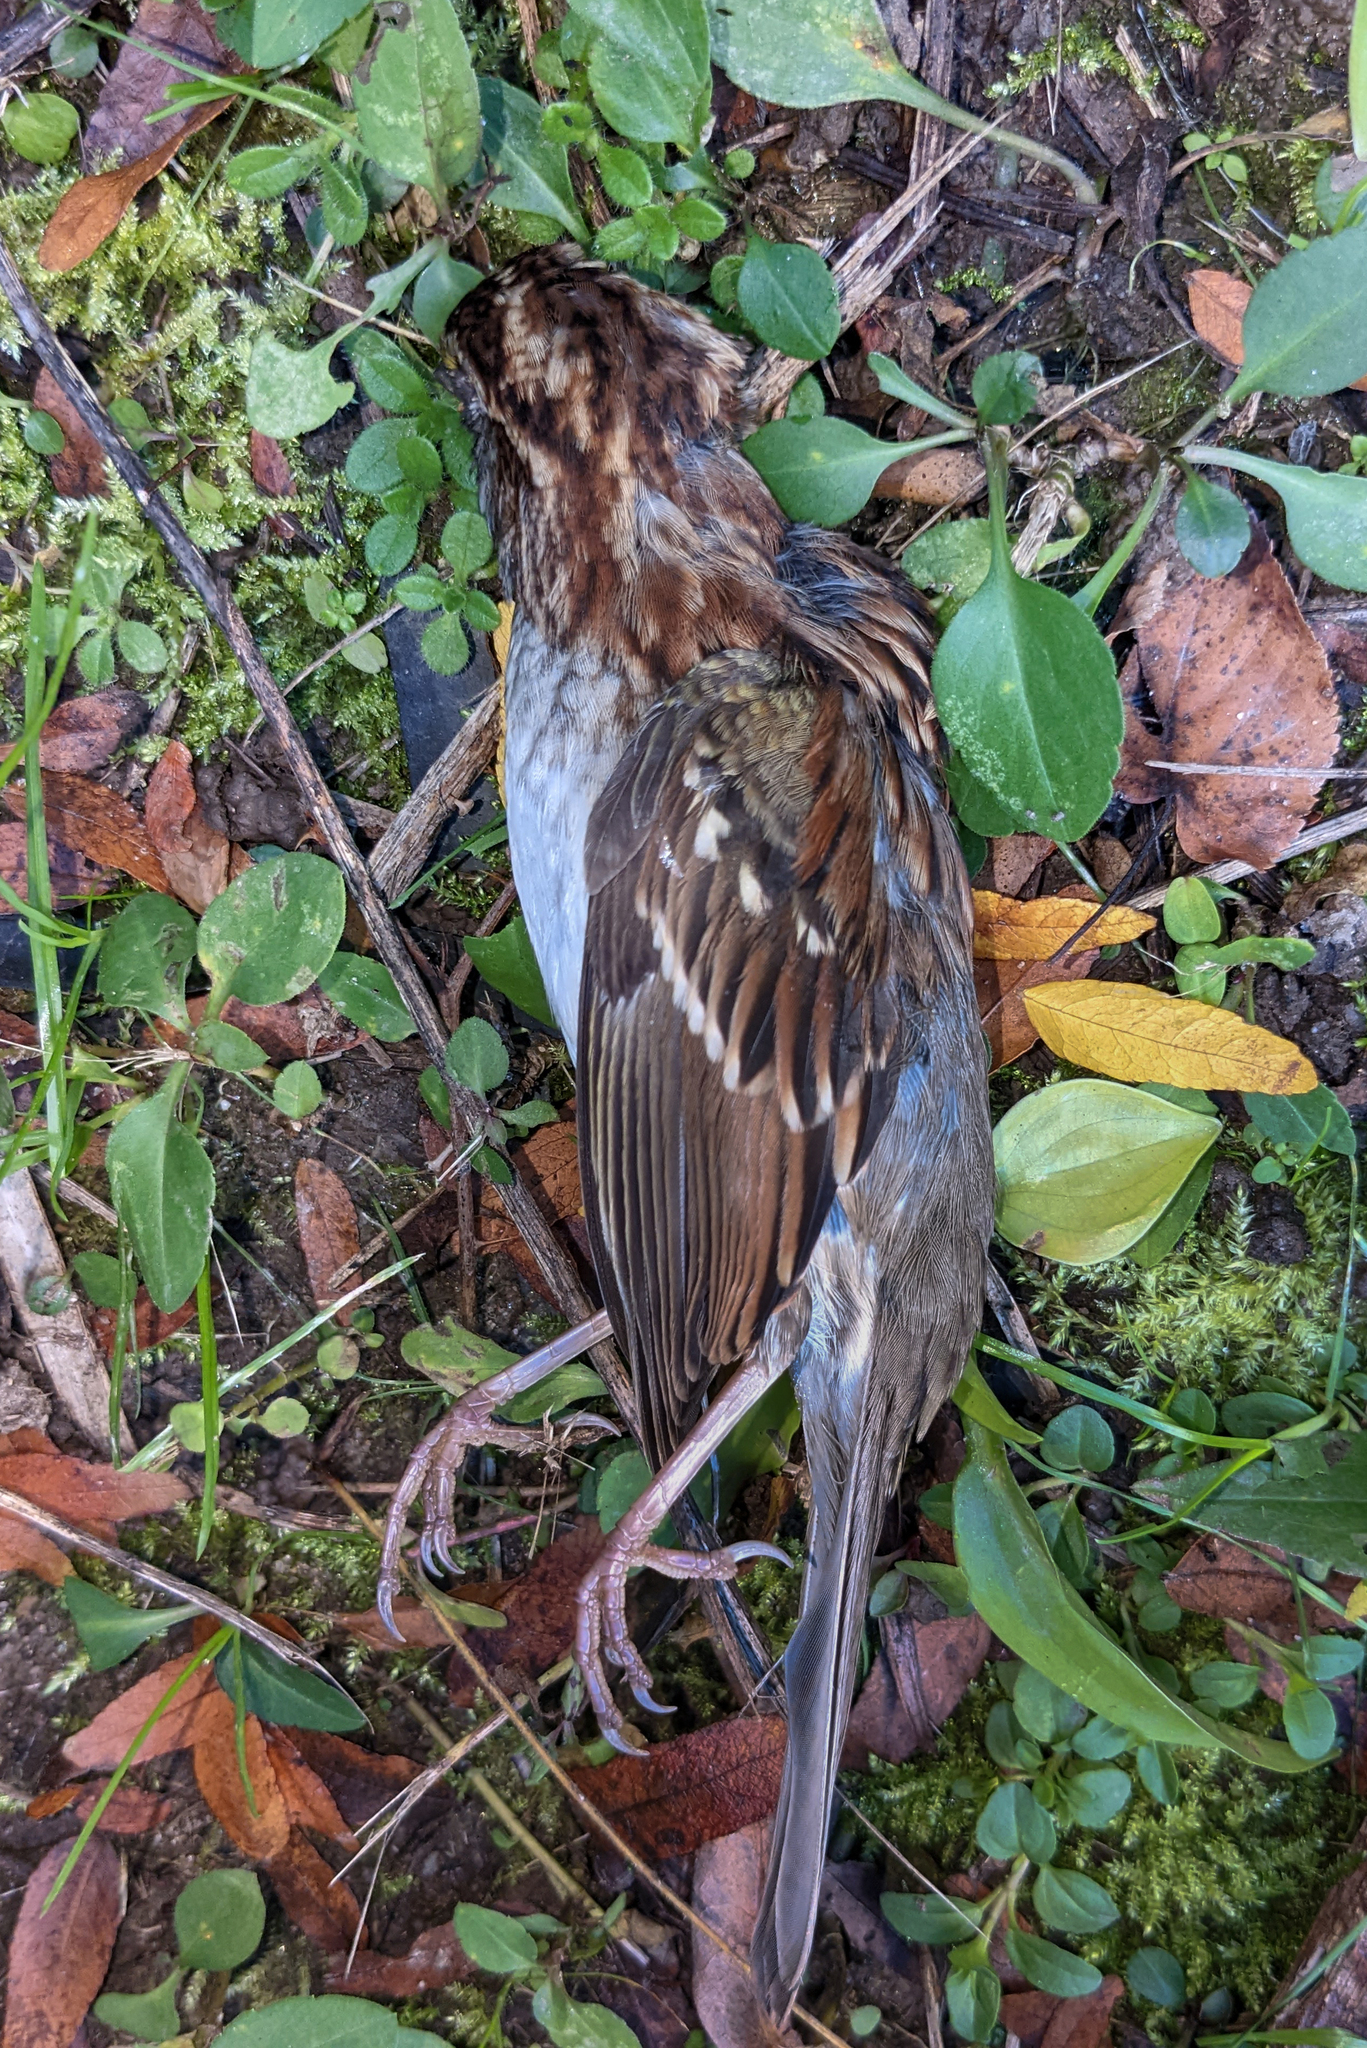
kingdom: Animalia
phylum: Chordata
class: Aves
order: Passeriformes
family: Passerellidae
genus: Zonotrichia
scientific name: Zonotrichia albicollis
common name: White-throated sparrow
